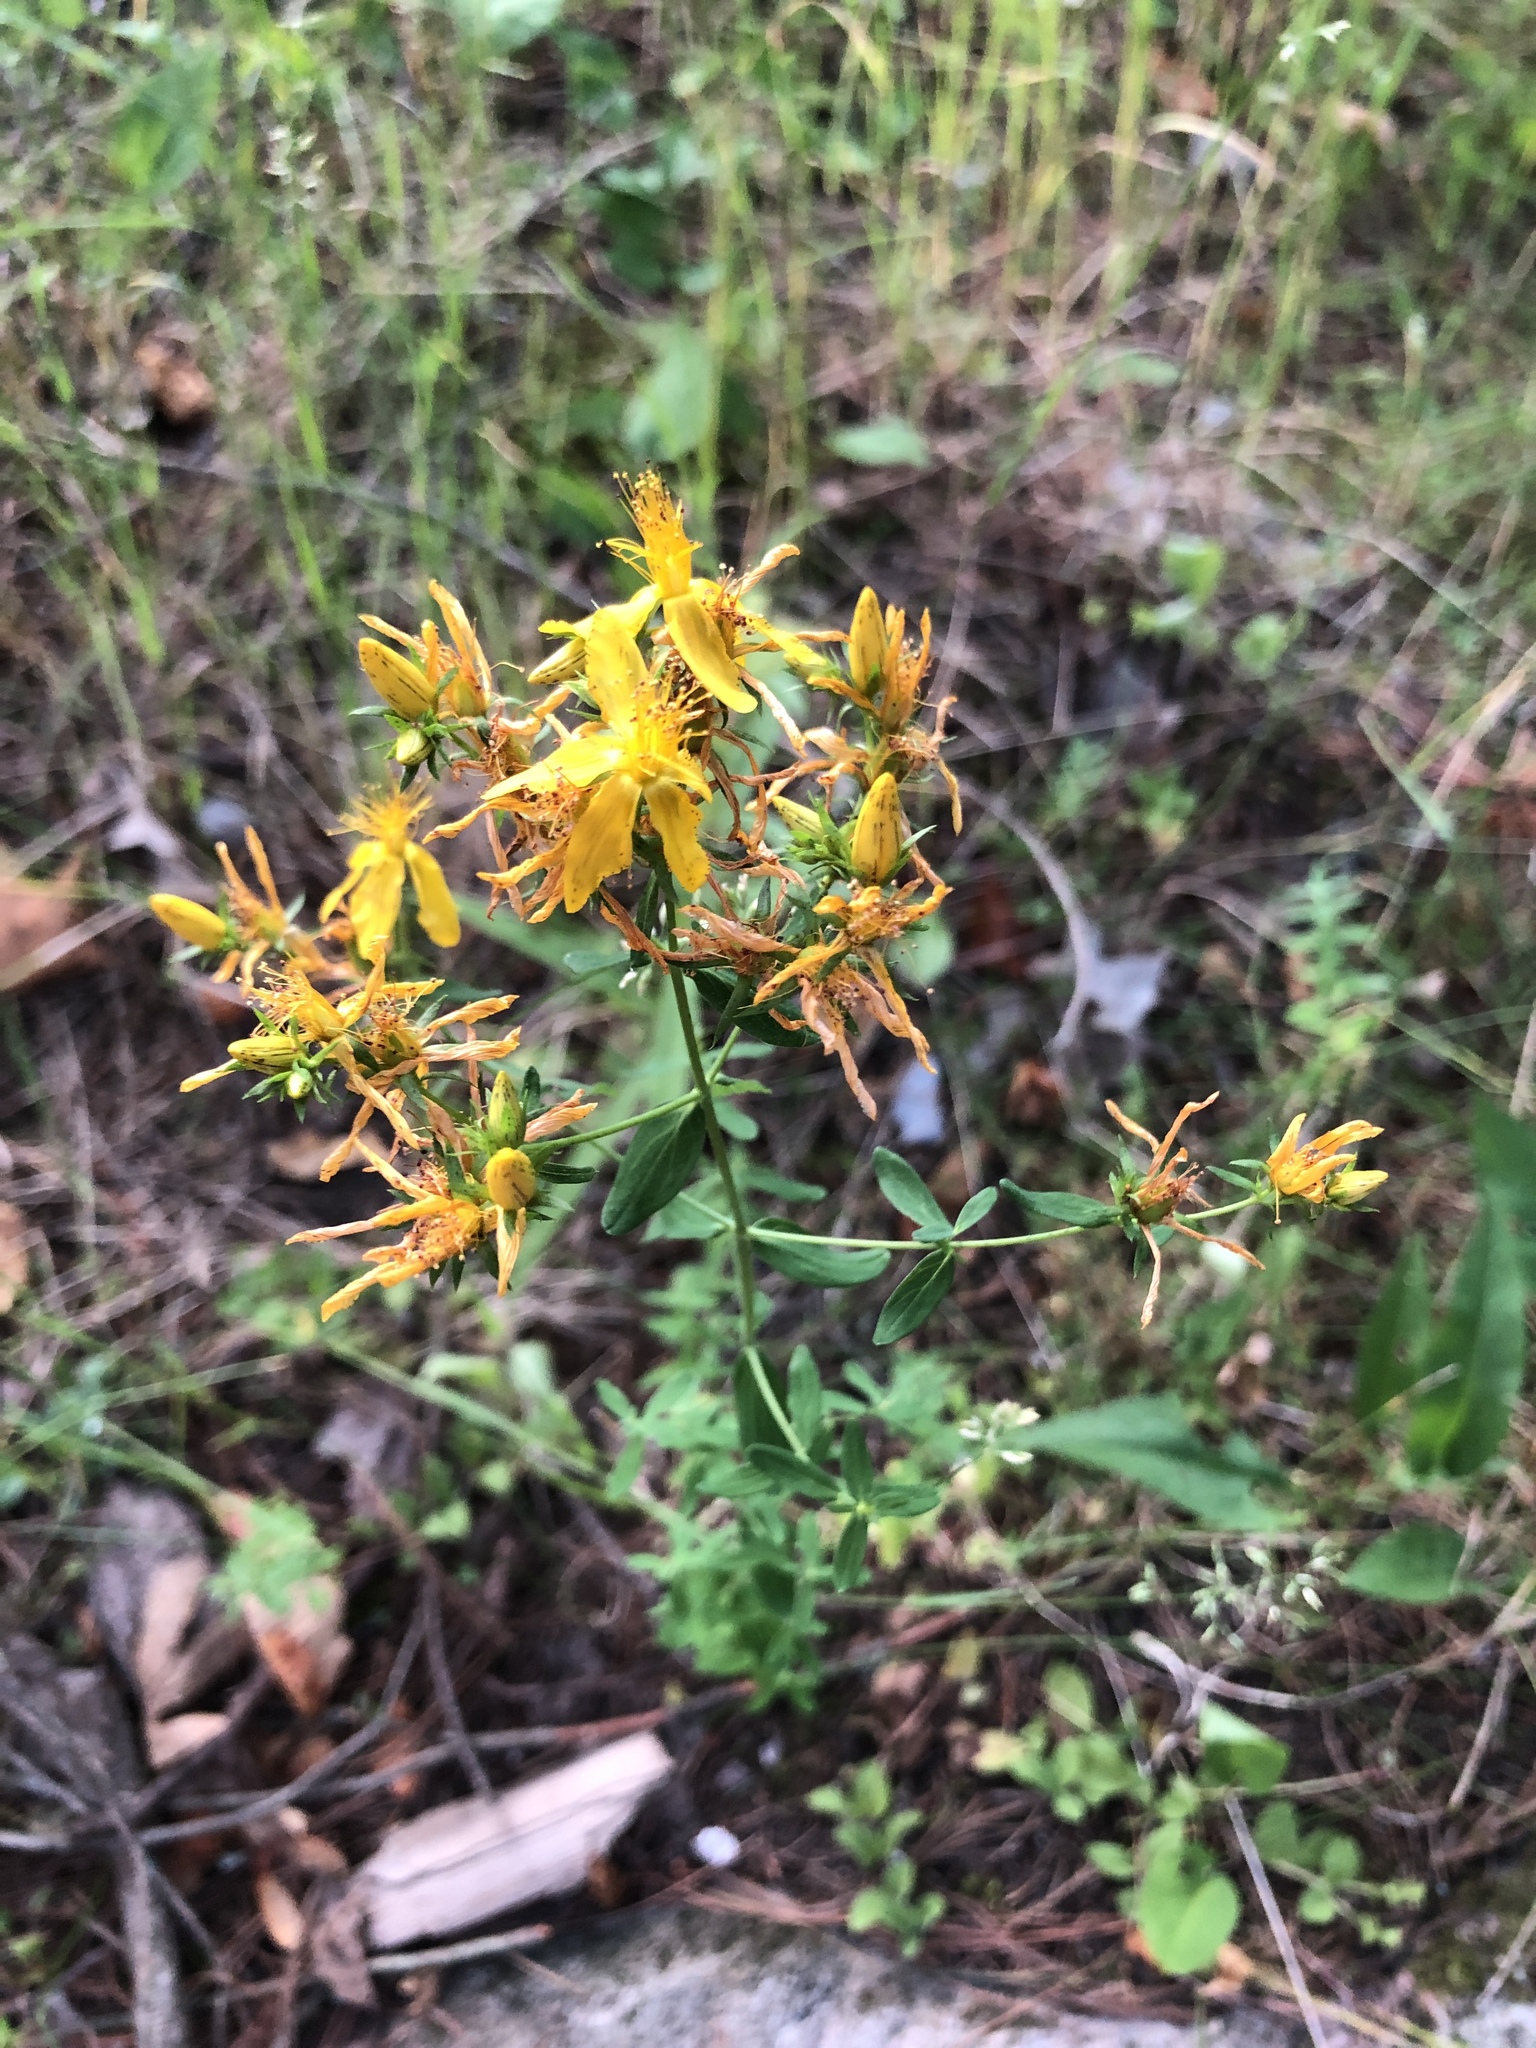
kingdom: Plantae
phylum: Tracheophyta
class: Magnoliopsida
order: Malpighiales
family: Hypericaceae
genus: Hypericum
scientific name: Hypericum perforatum
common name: Common st. johnswort
